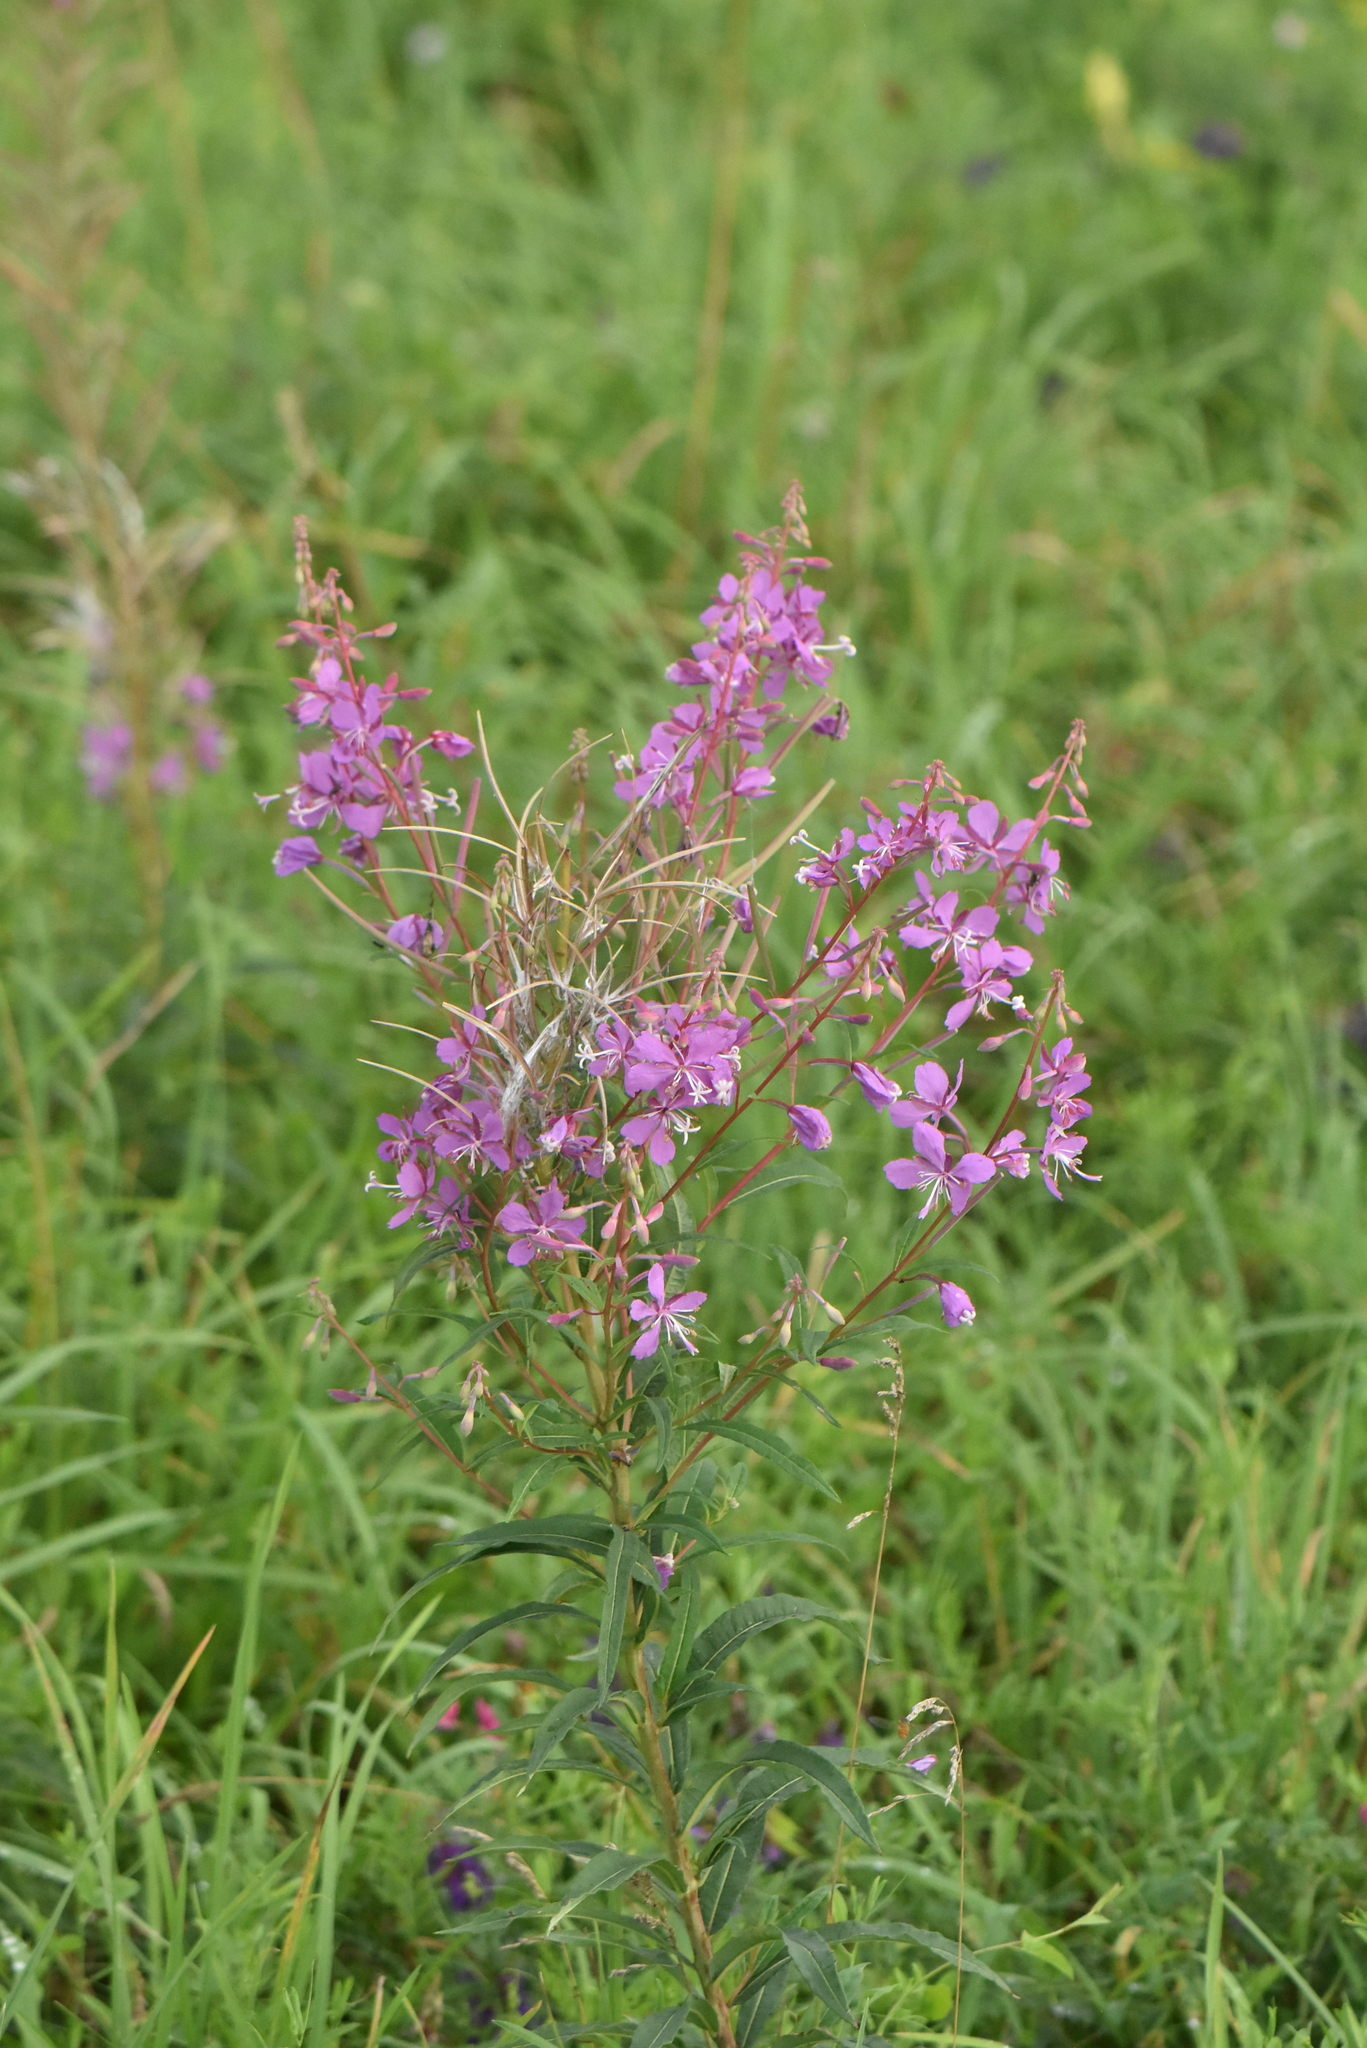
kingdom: Plantae
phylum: Tracheophyta
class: Magnoliopsida
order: Myrtales
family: Onagraceae
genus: Chamaenerion
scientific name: Chamaenerion angustifolium
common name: Fireweed
